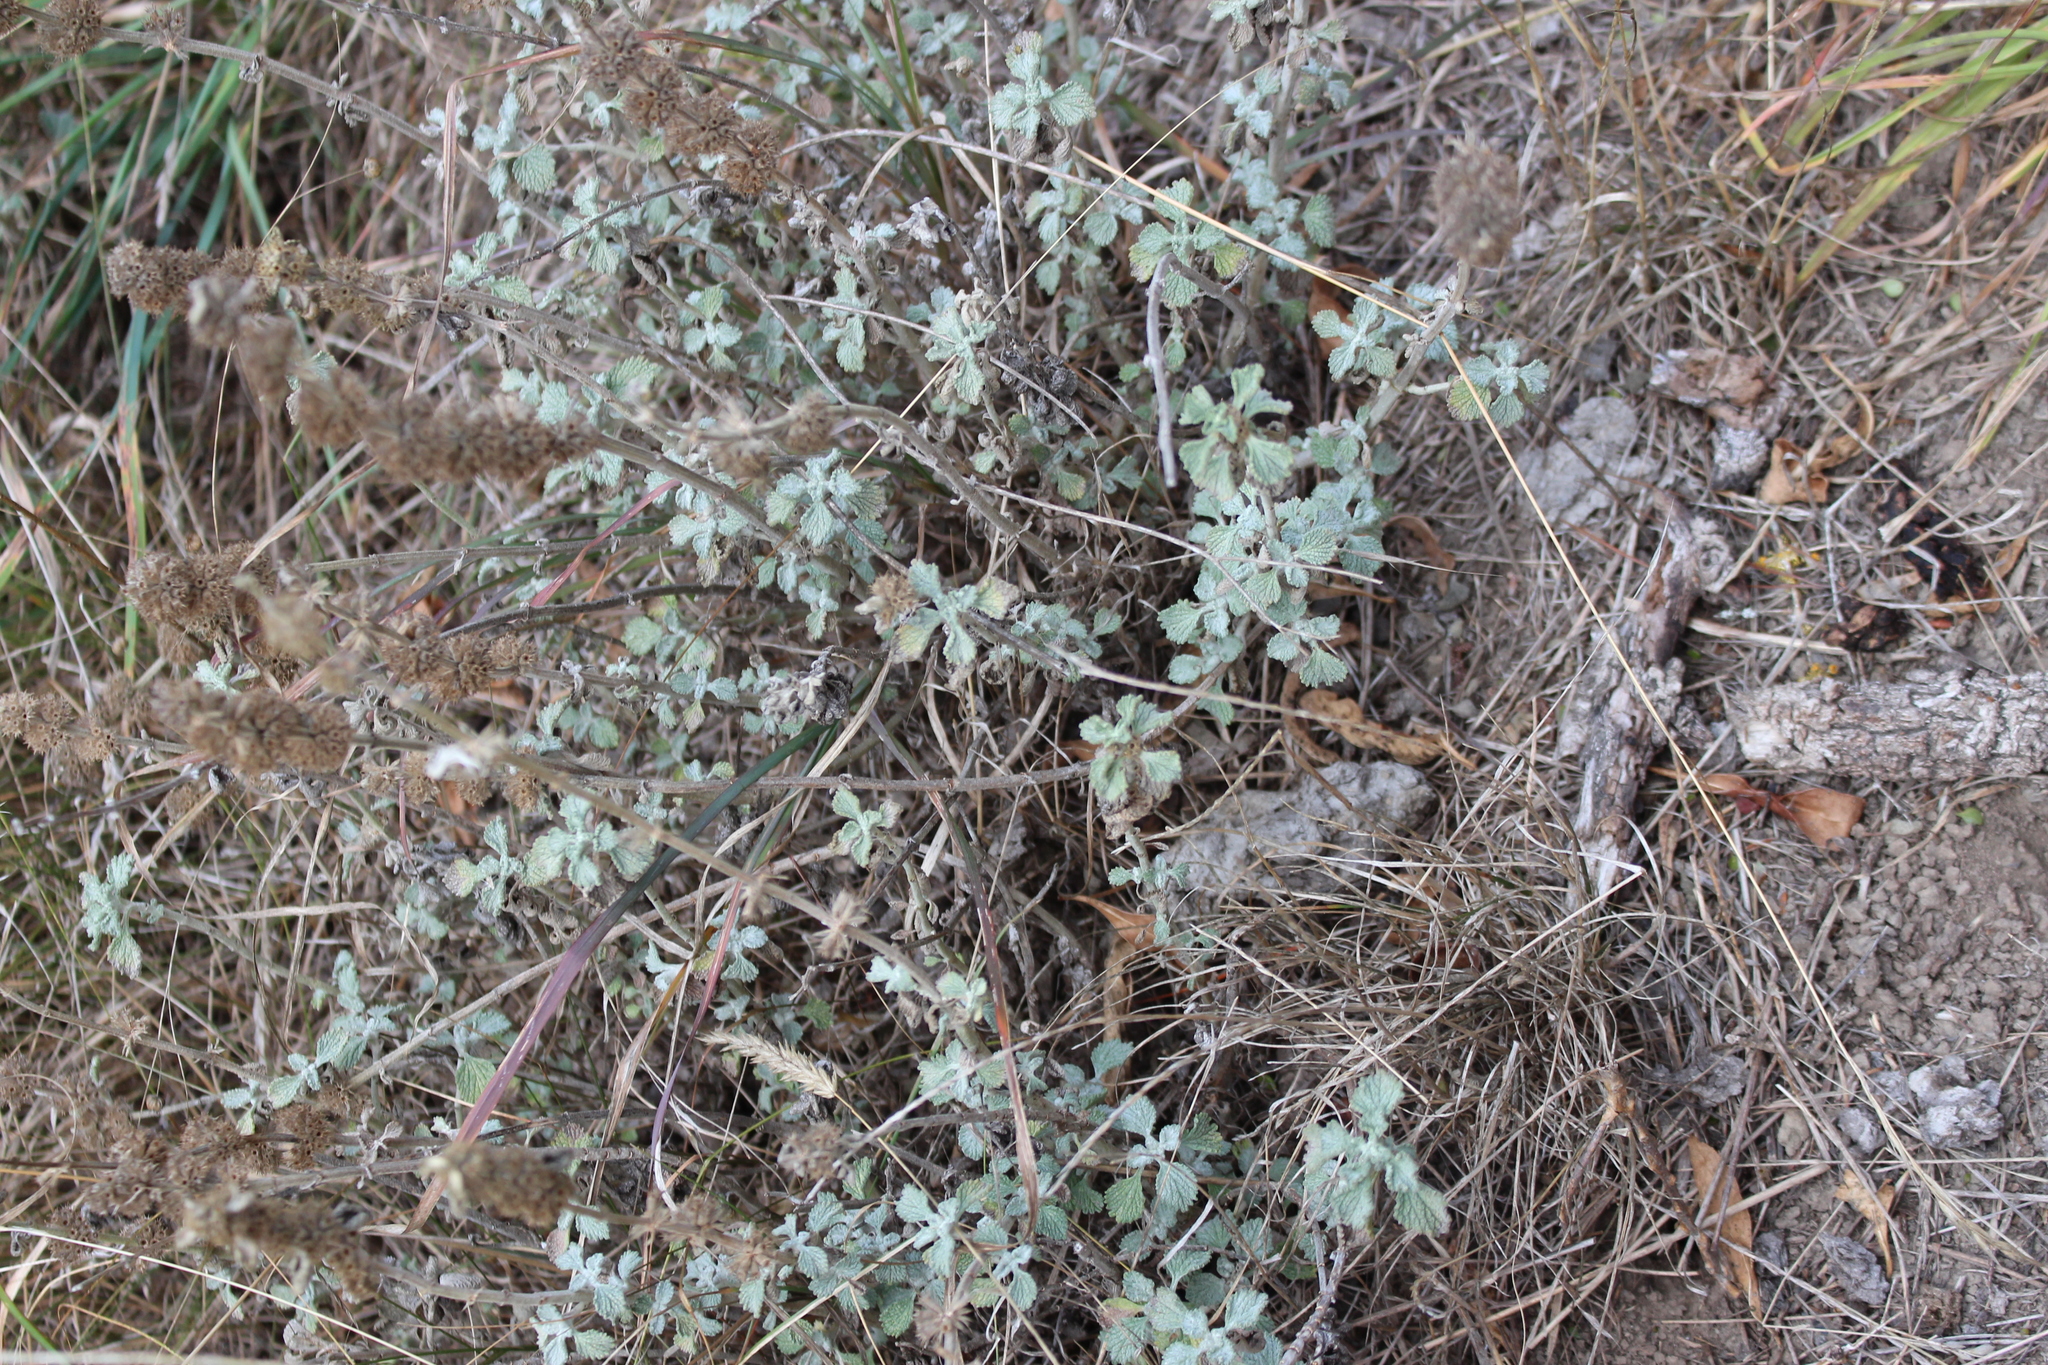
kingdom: Plantae
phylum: Tracheophyta
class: Magnoliopsida
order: Lamiales
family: Lamiaceae
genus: Marrubium
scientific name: Marrubium vulgare
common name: Horehound
